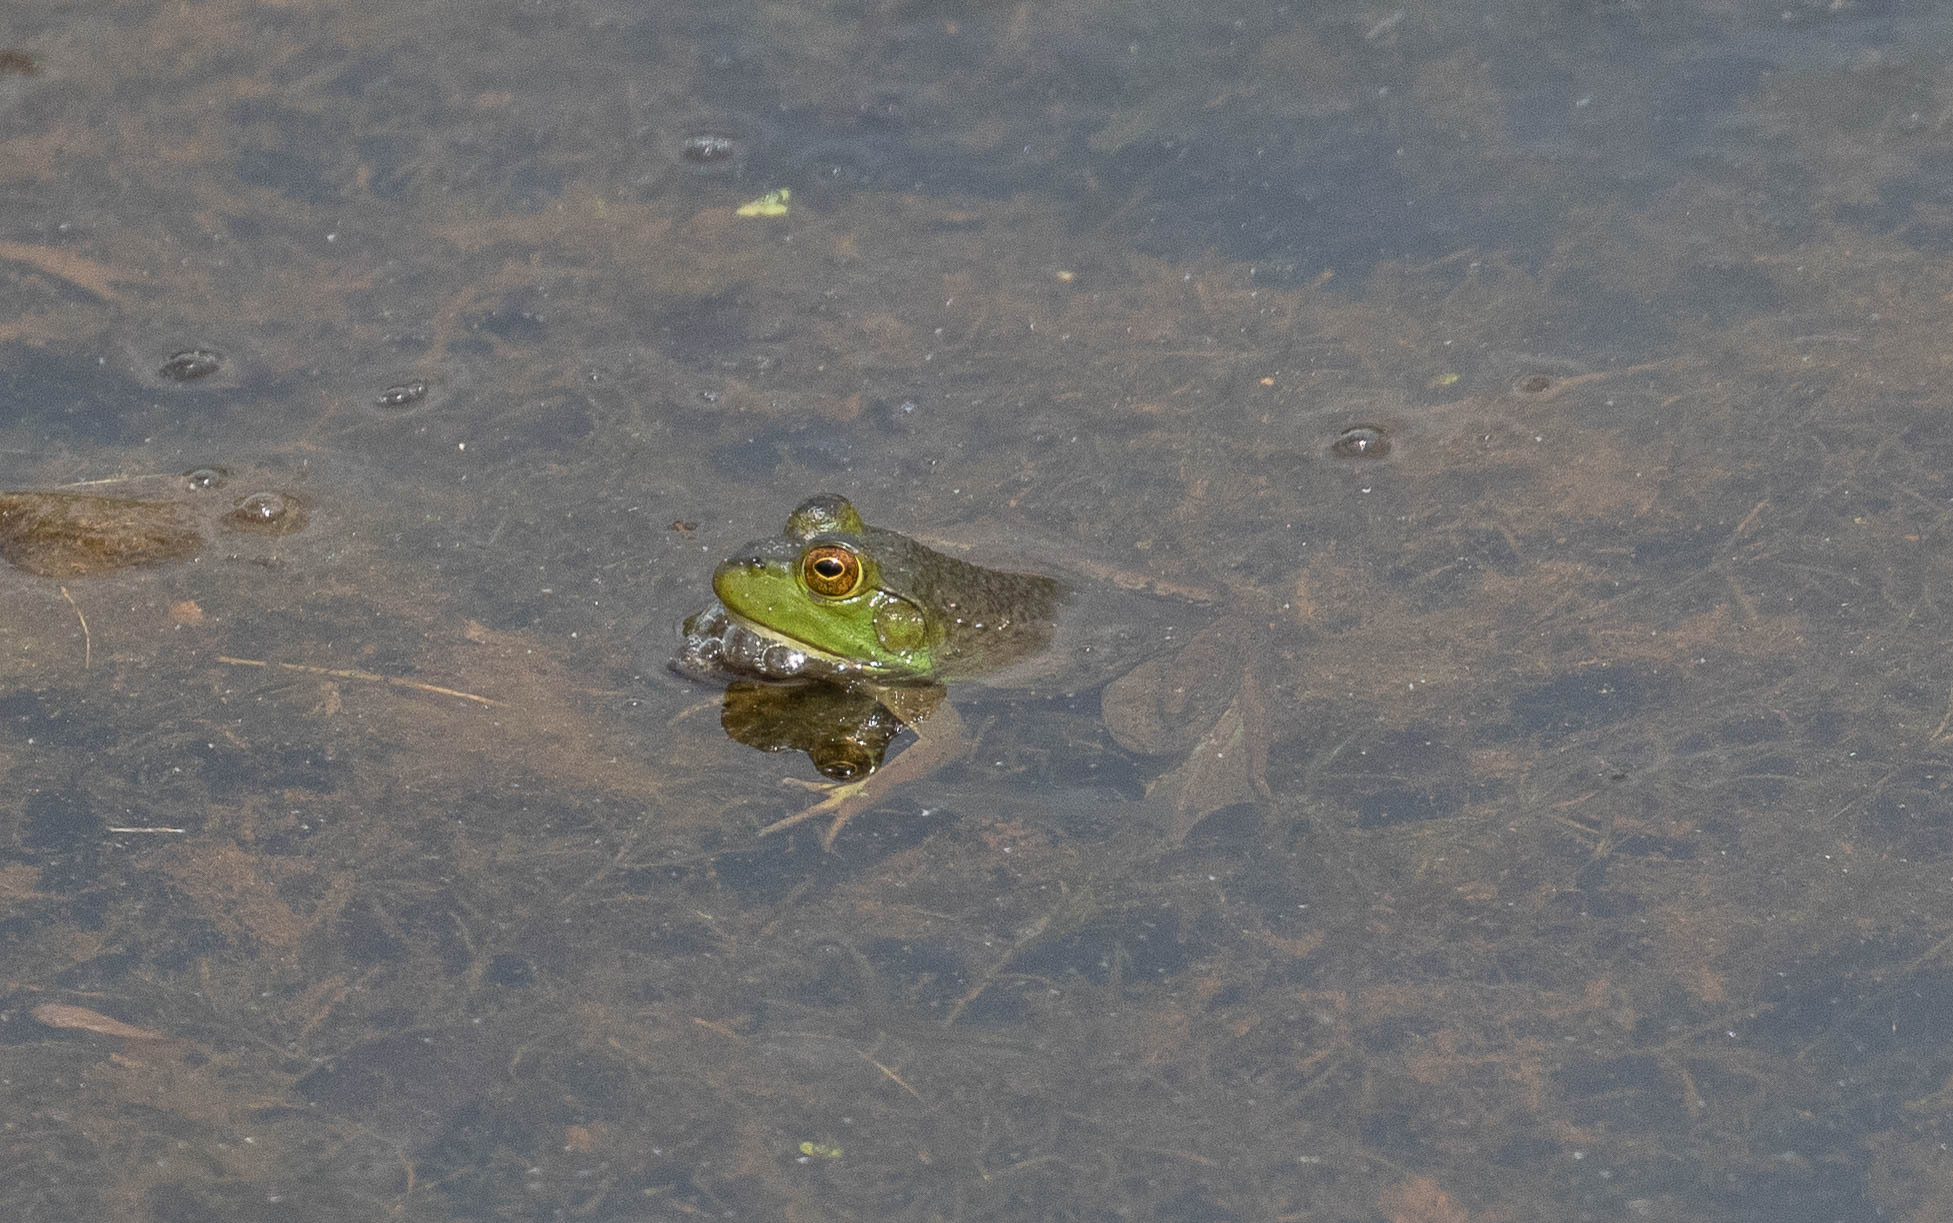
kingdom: Animalia
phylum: Chordata
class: Amphibia
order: Anura
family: Ranidae
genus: Lithobates
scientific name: Lithobates catesbeianus
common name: American bullfrog
